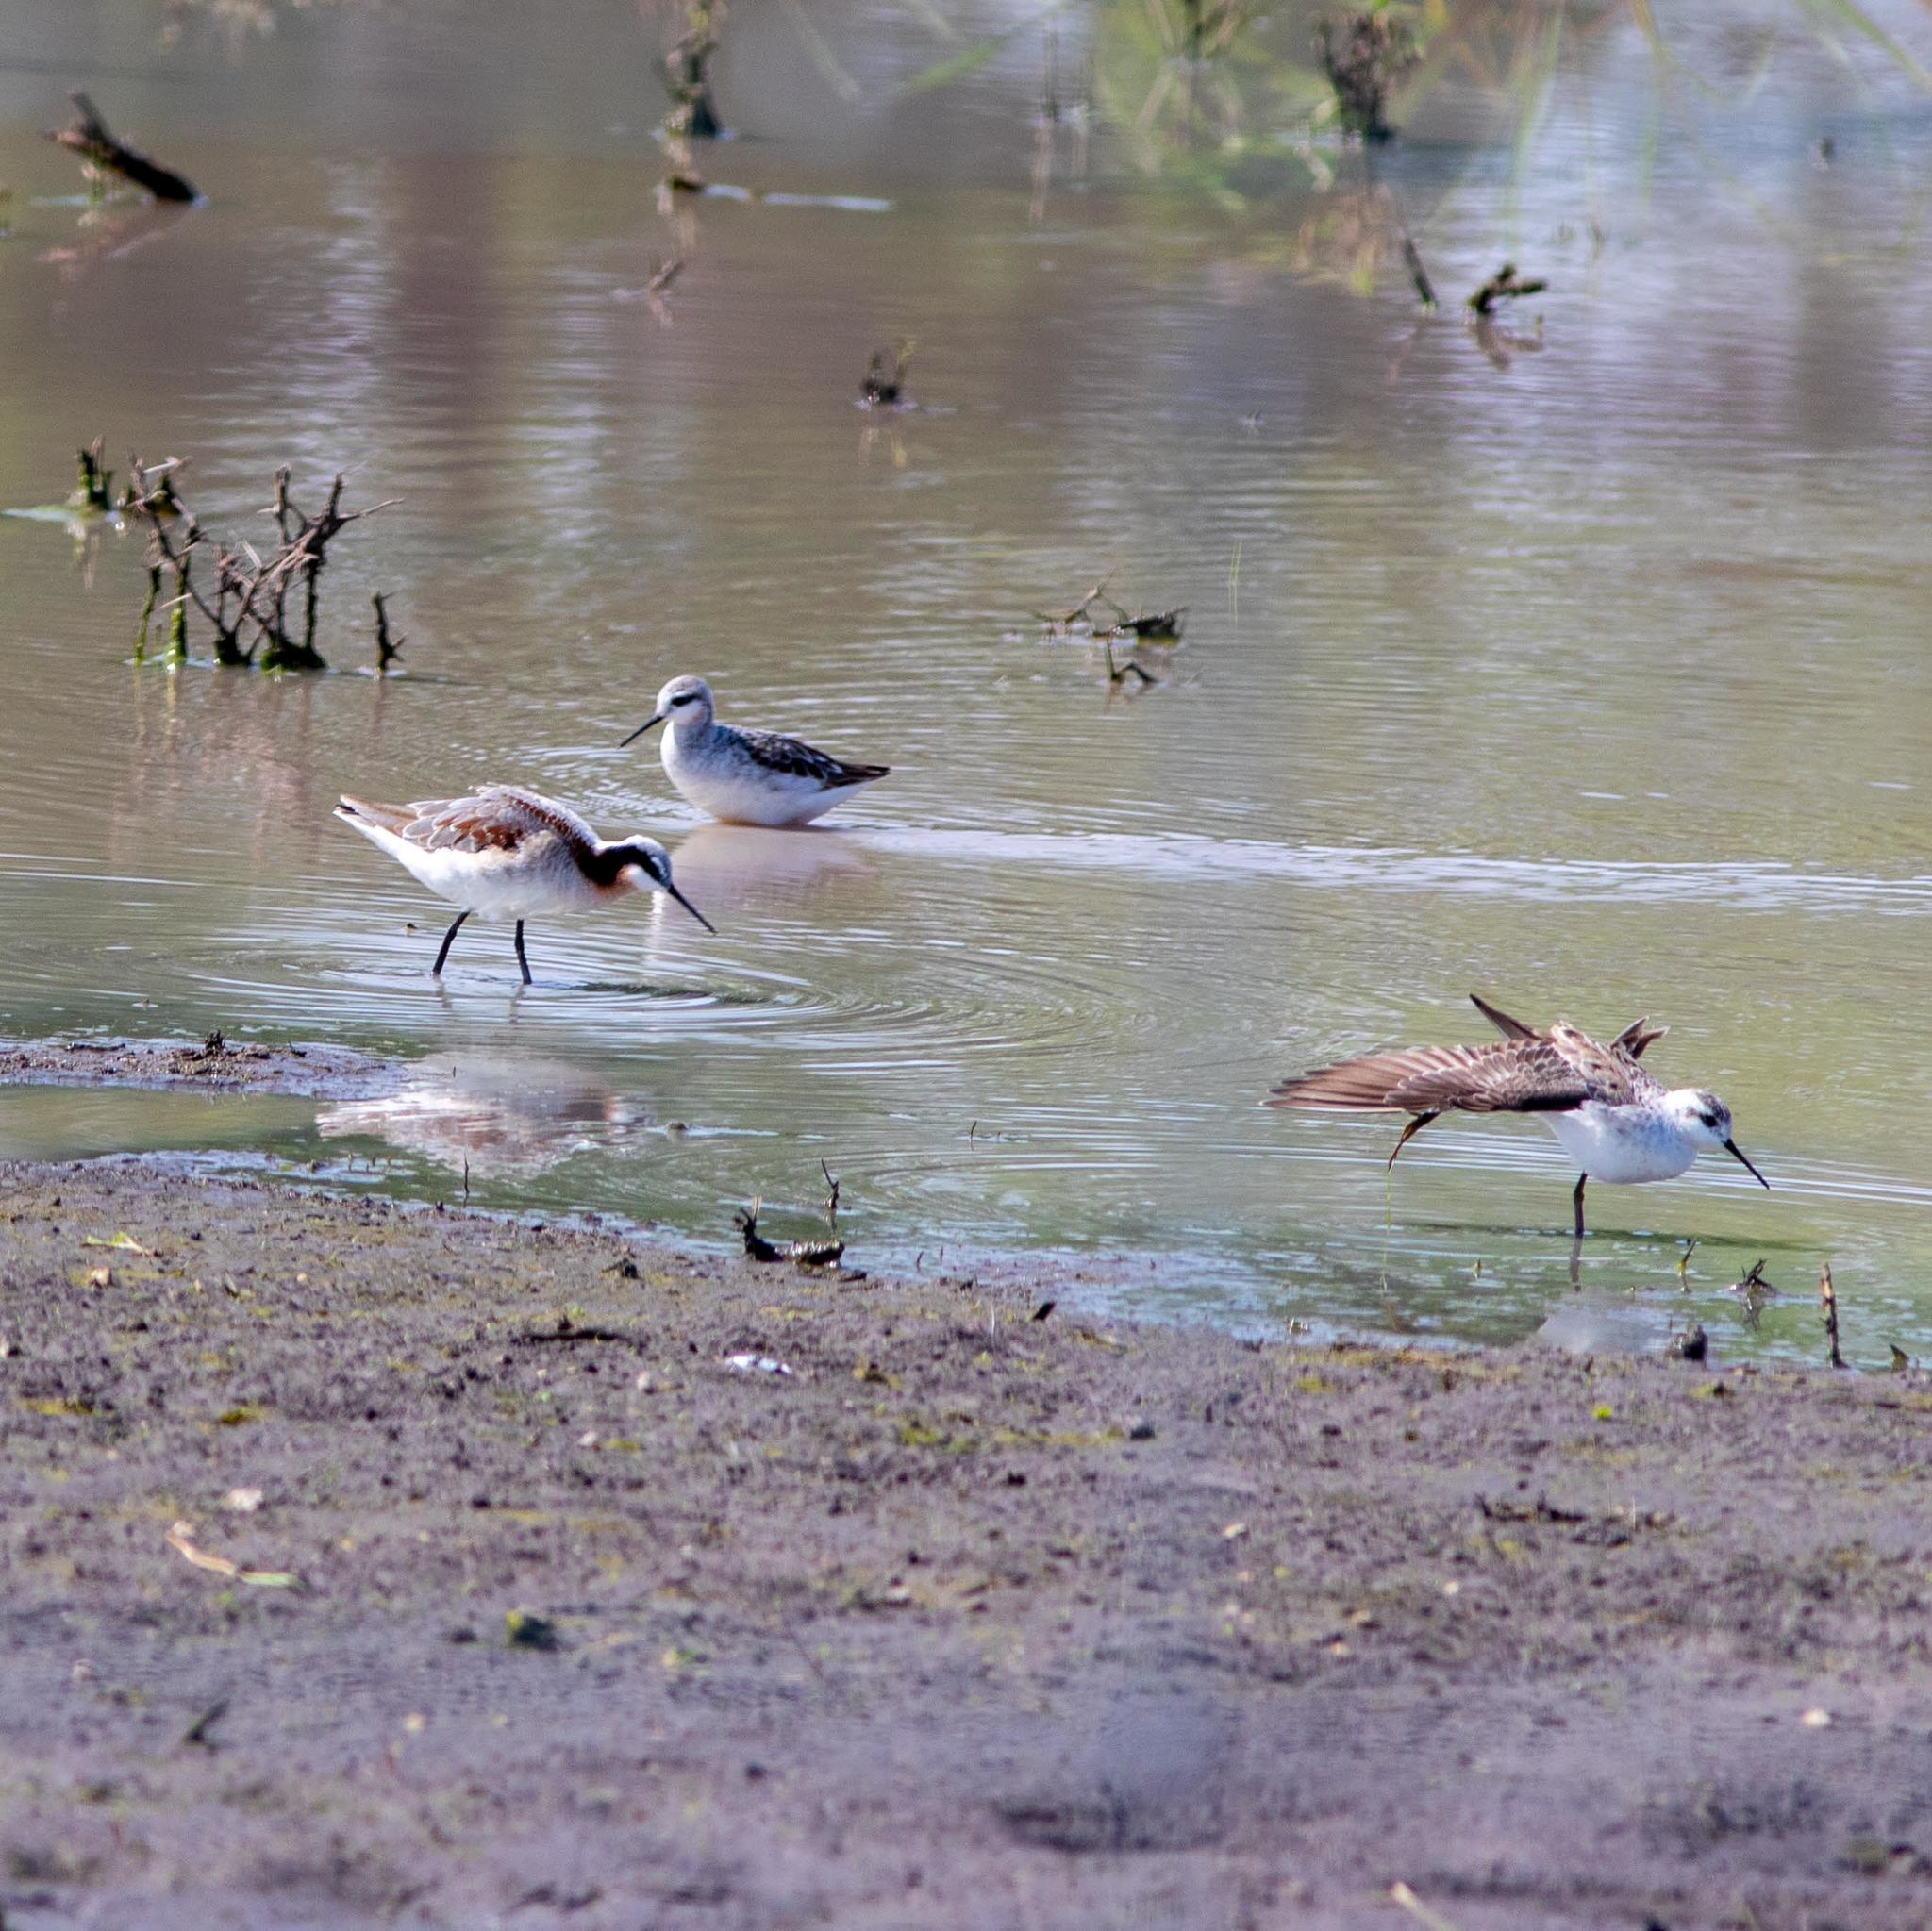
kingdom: Animalia
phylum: Chordata
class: Aves
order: Charadriiformes
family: Scolopacidae
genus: Phalaropus
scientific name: Phalaropus tricolor
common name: Wilson's phalarope
